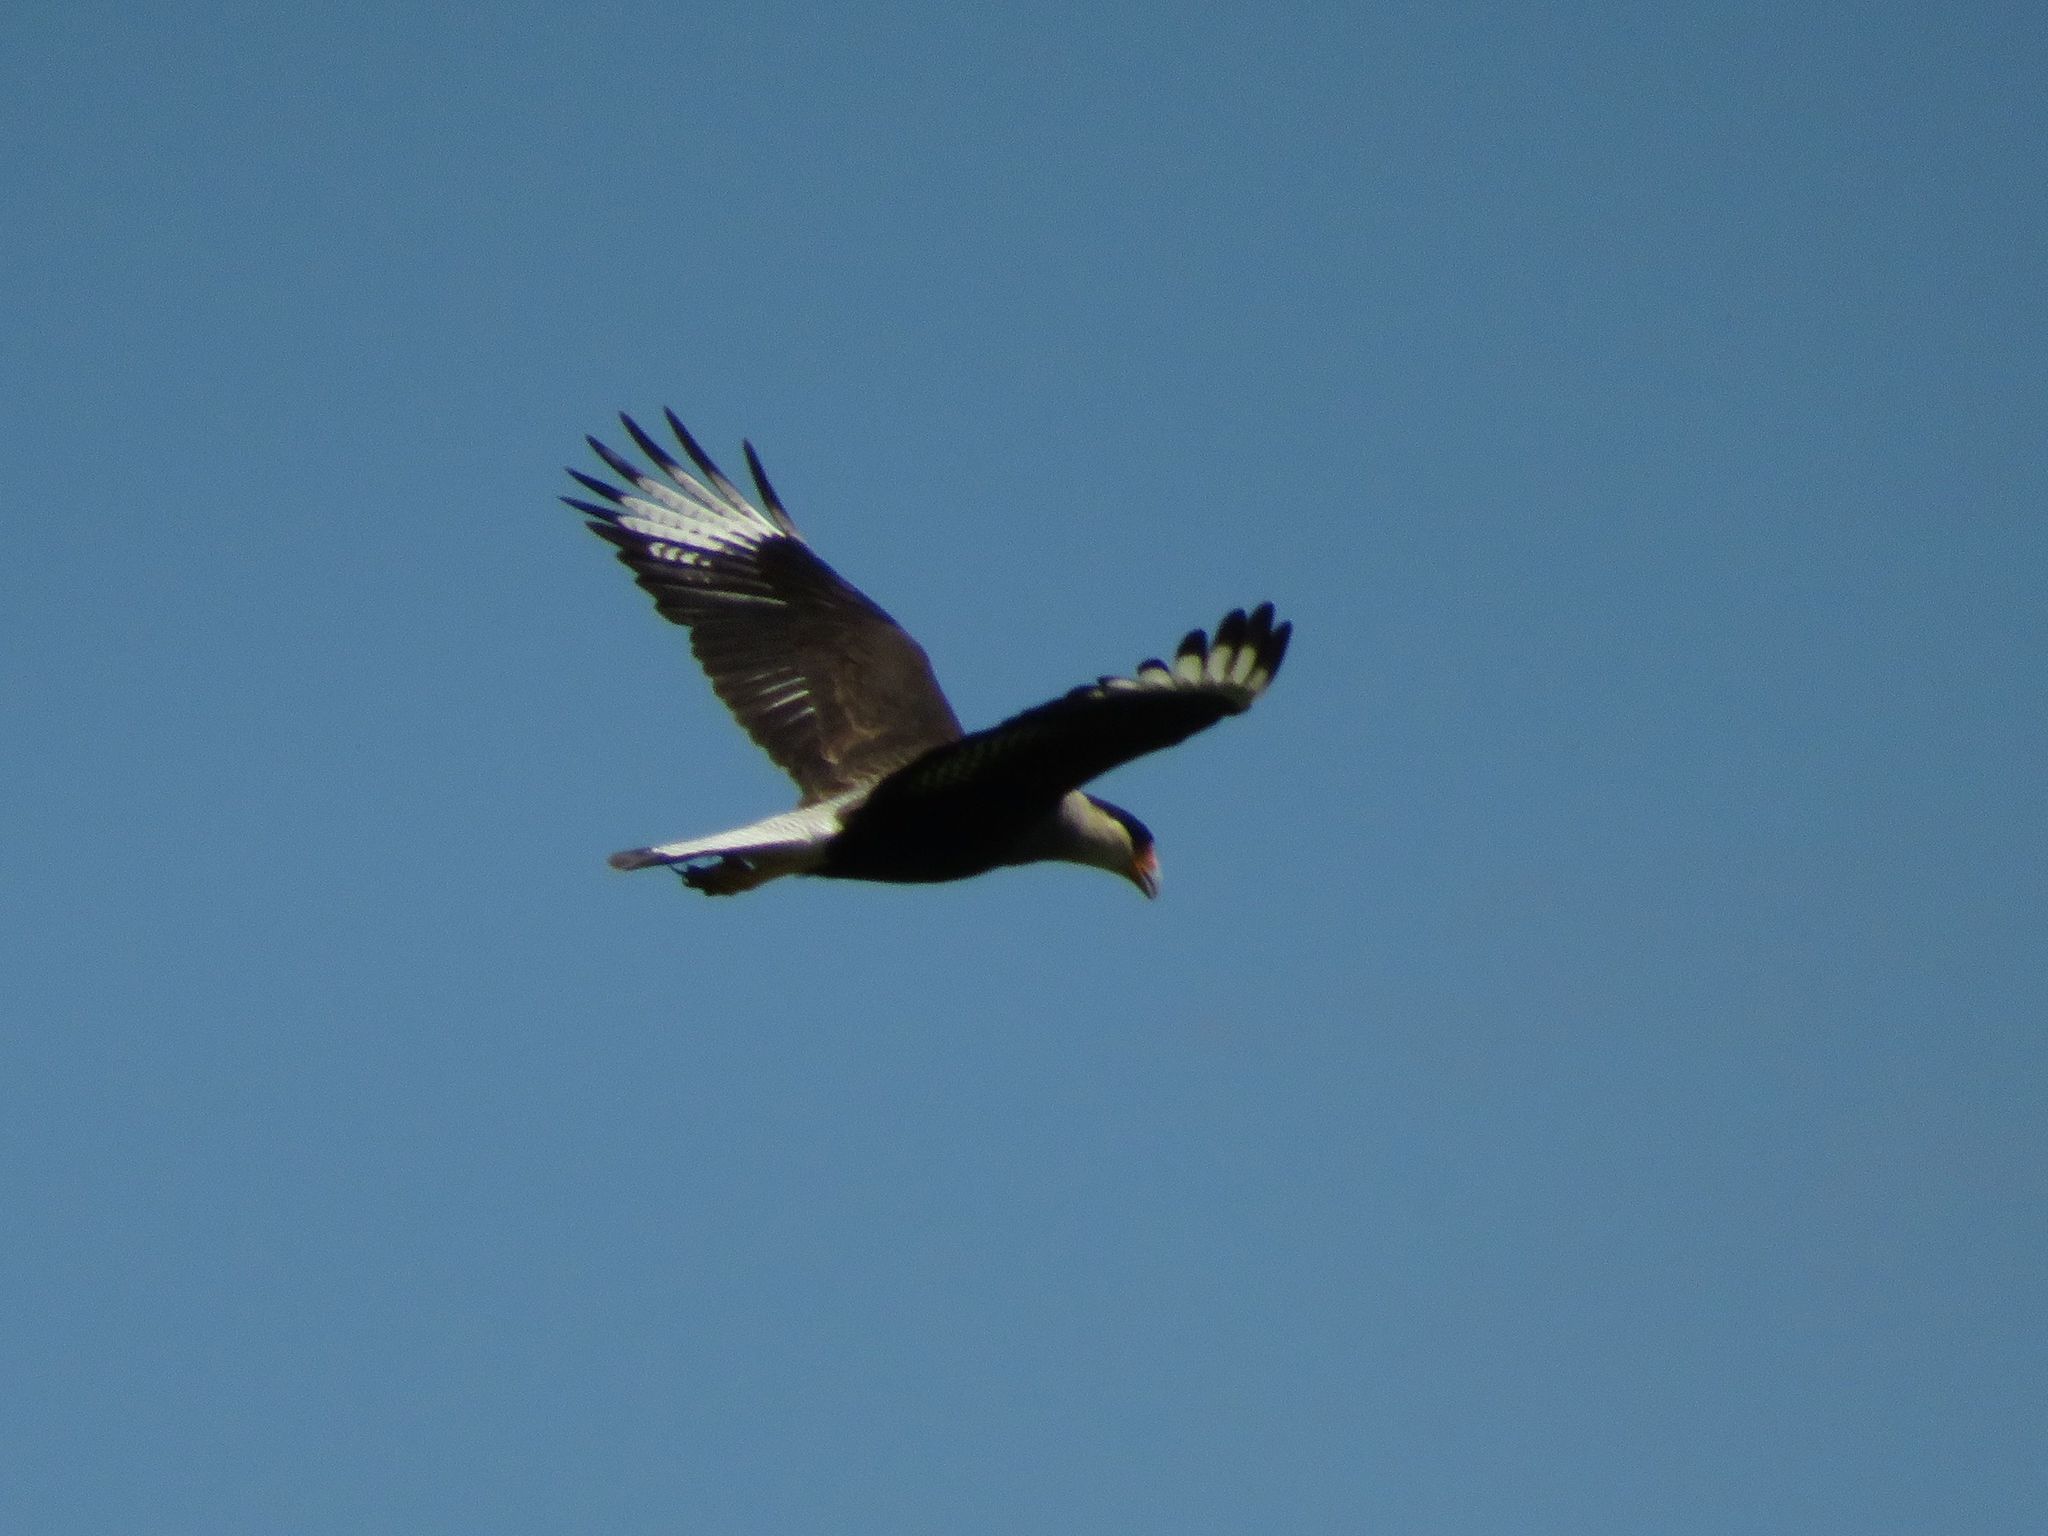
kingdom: Animalia
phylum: Chordata
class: Aves
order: Falconiformes
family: Falconidae
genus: Caracara
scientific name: Caracara plancus
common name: Southern caracara
